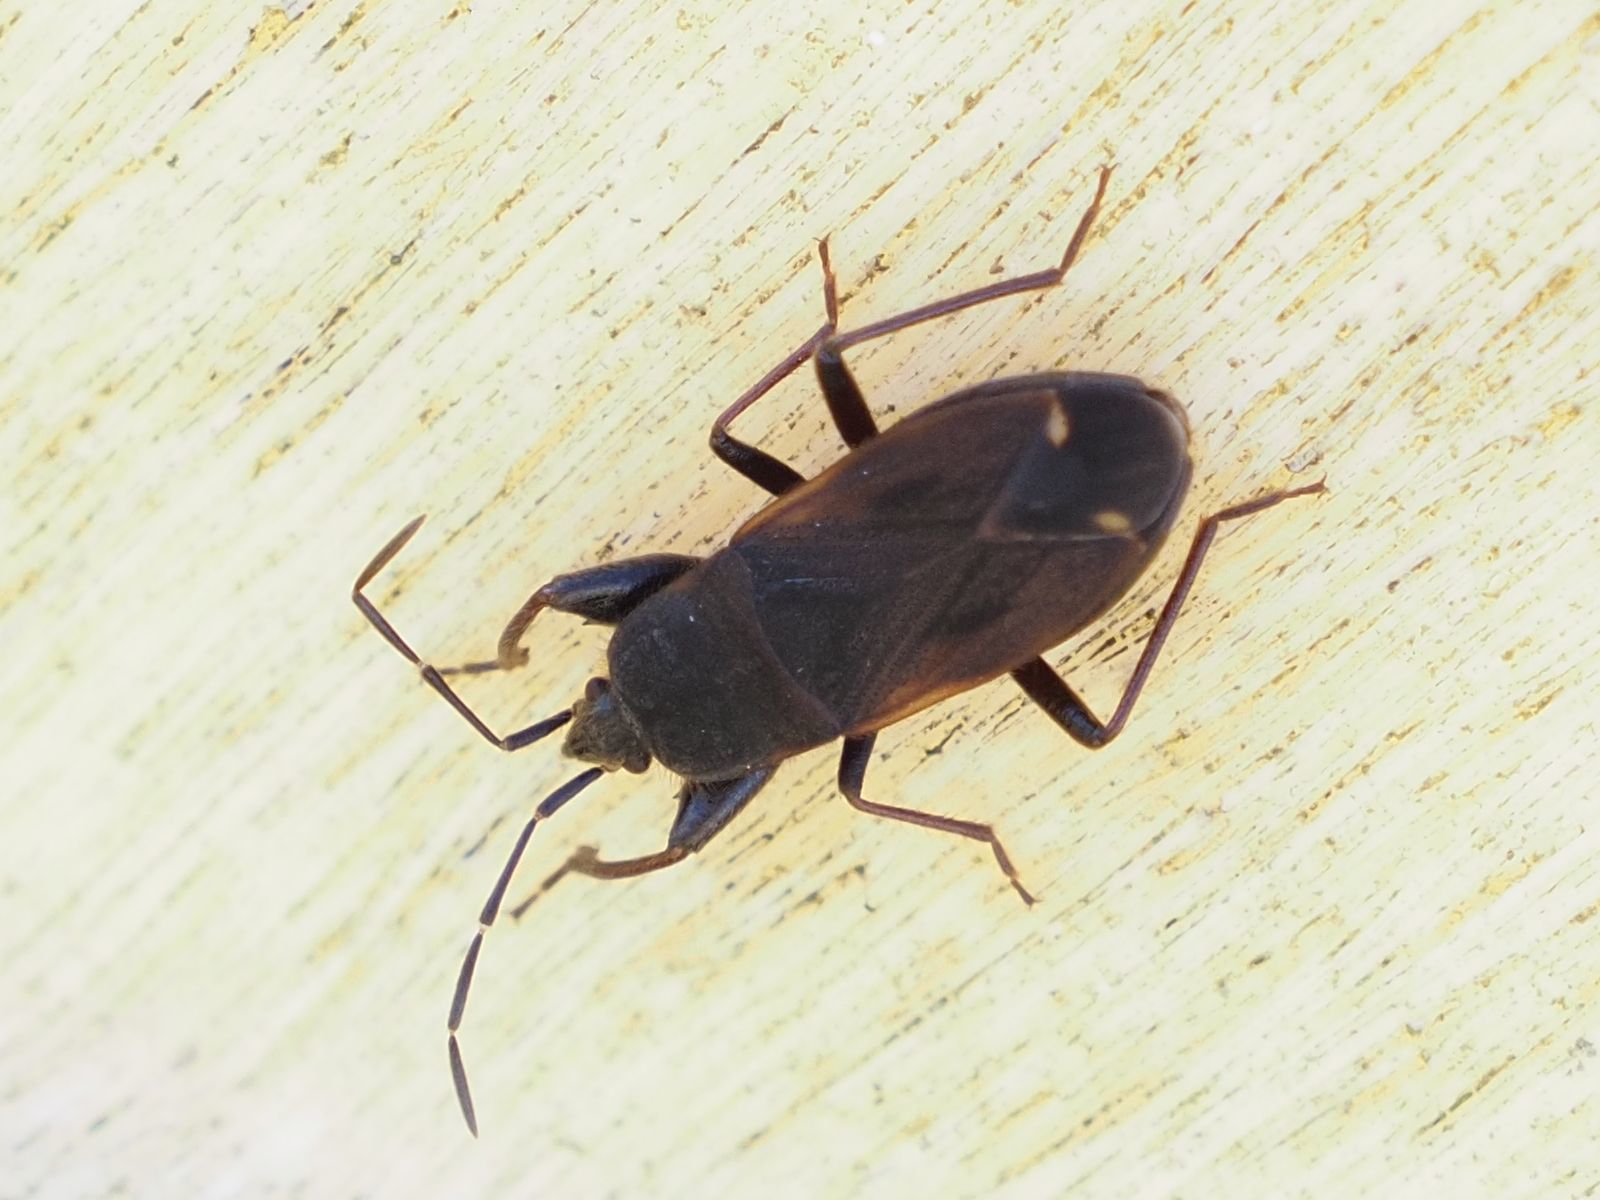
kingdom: Animalia
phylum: Arthropoda
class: Insecta
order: Hemiptera
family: Rhyparochromidae
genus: Eremocoris
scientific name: Eremocoris plebejus
